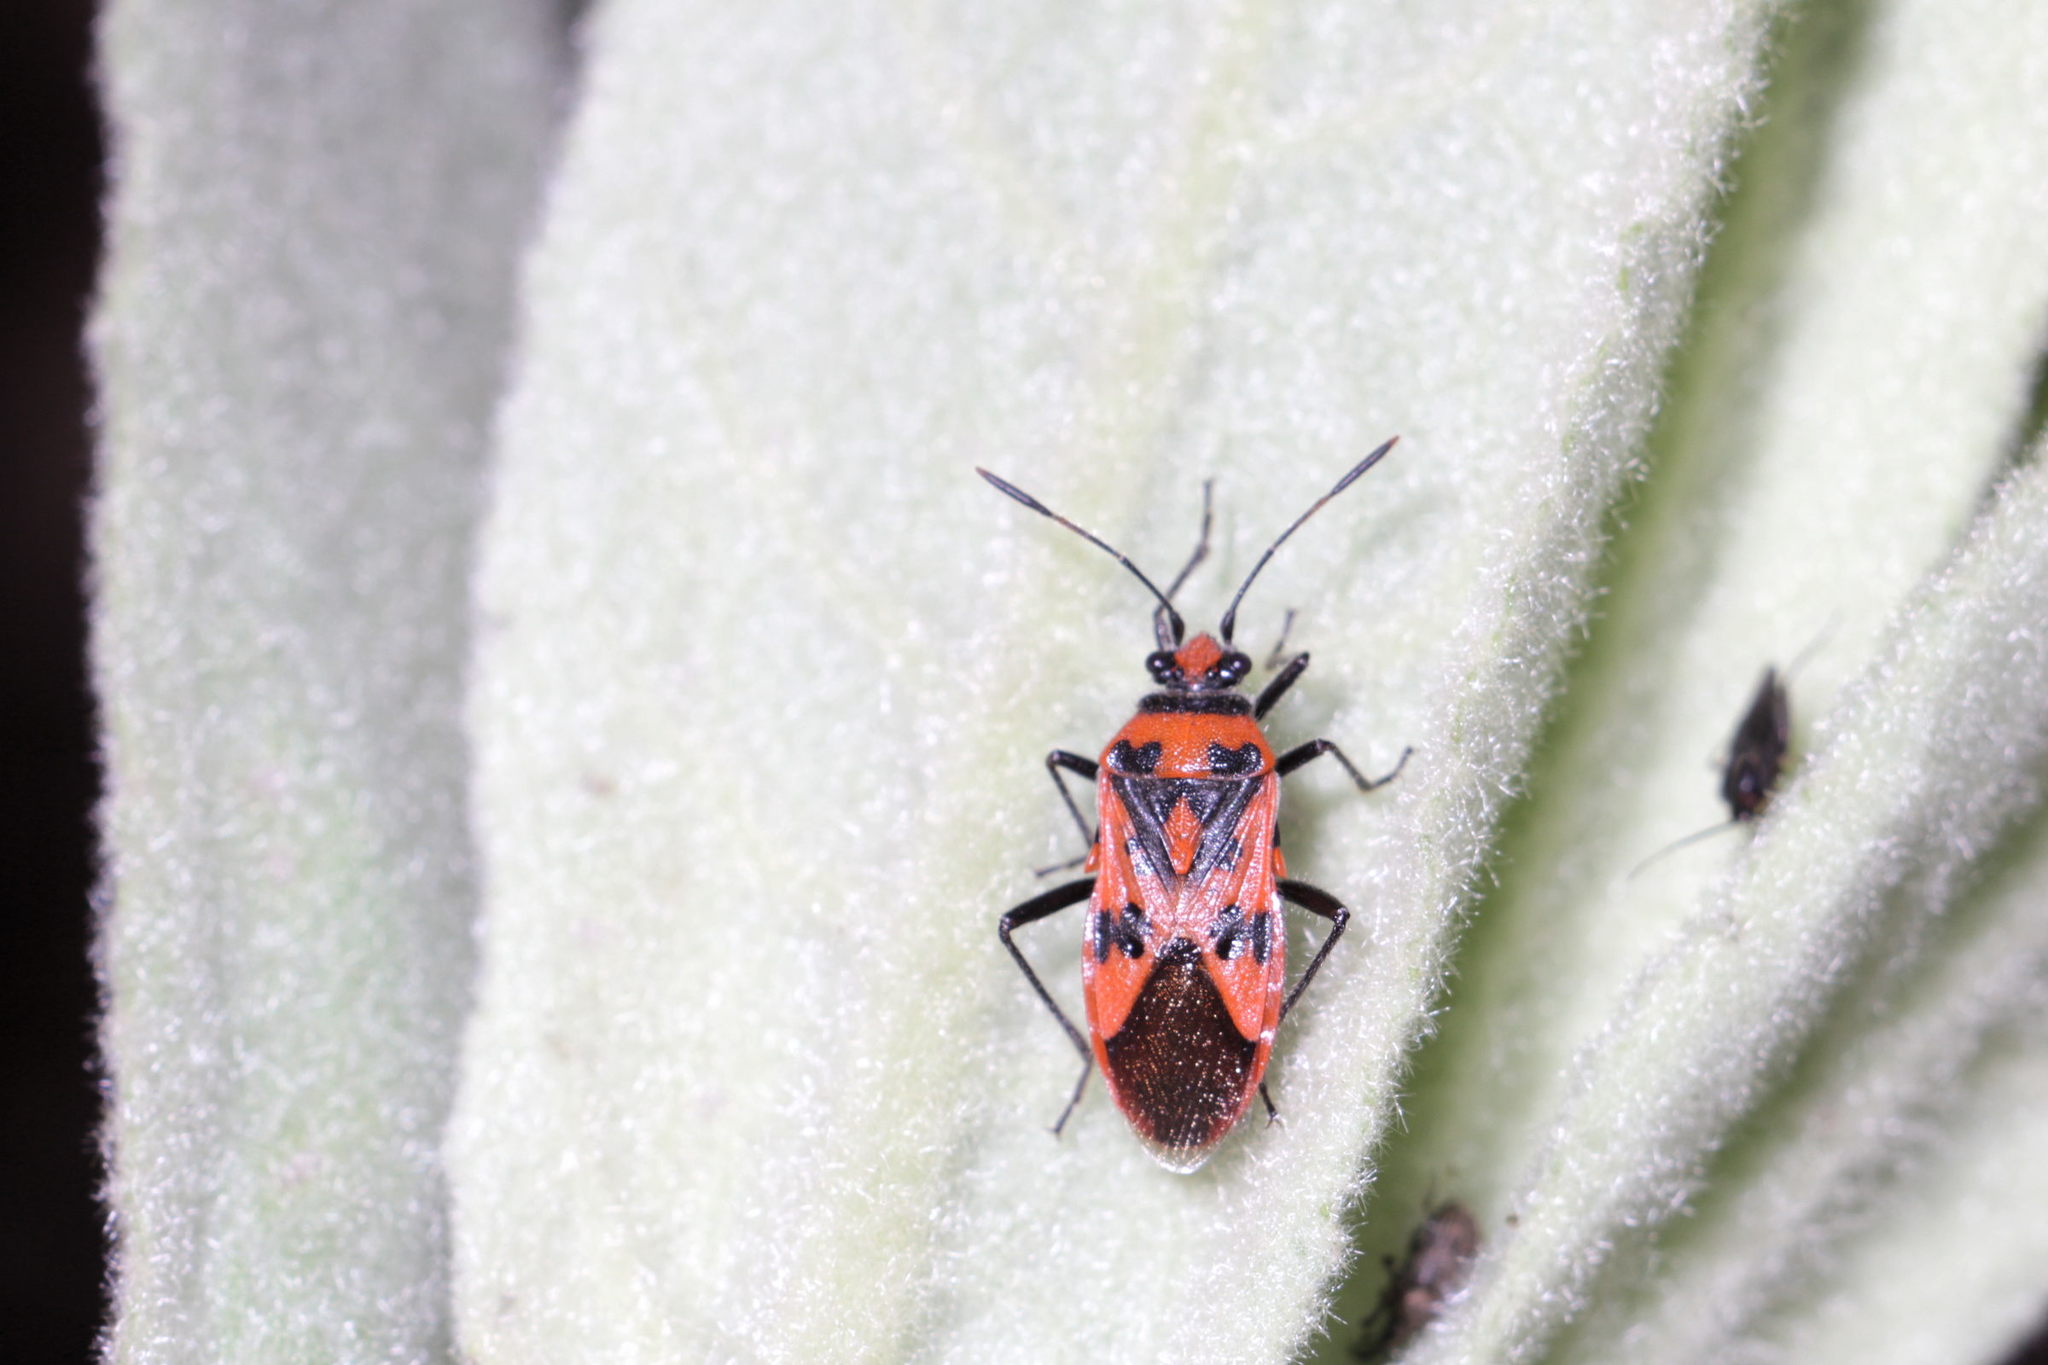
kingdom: Animalia
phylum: Arthropoda
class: Insecta
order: Hemiptera
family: Rhopalidae
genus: Corizus
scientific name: Corizus hyoscyami
